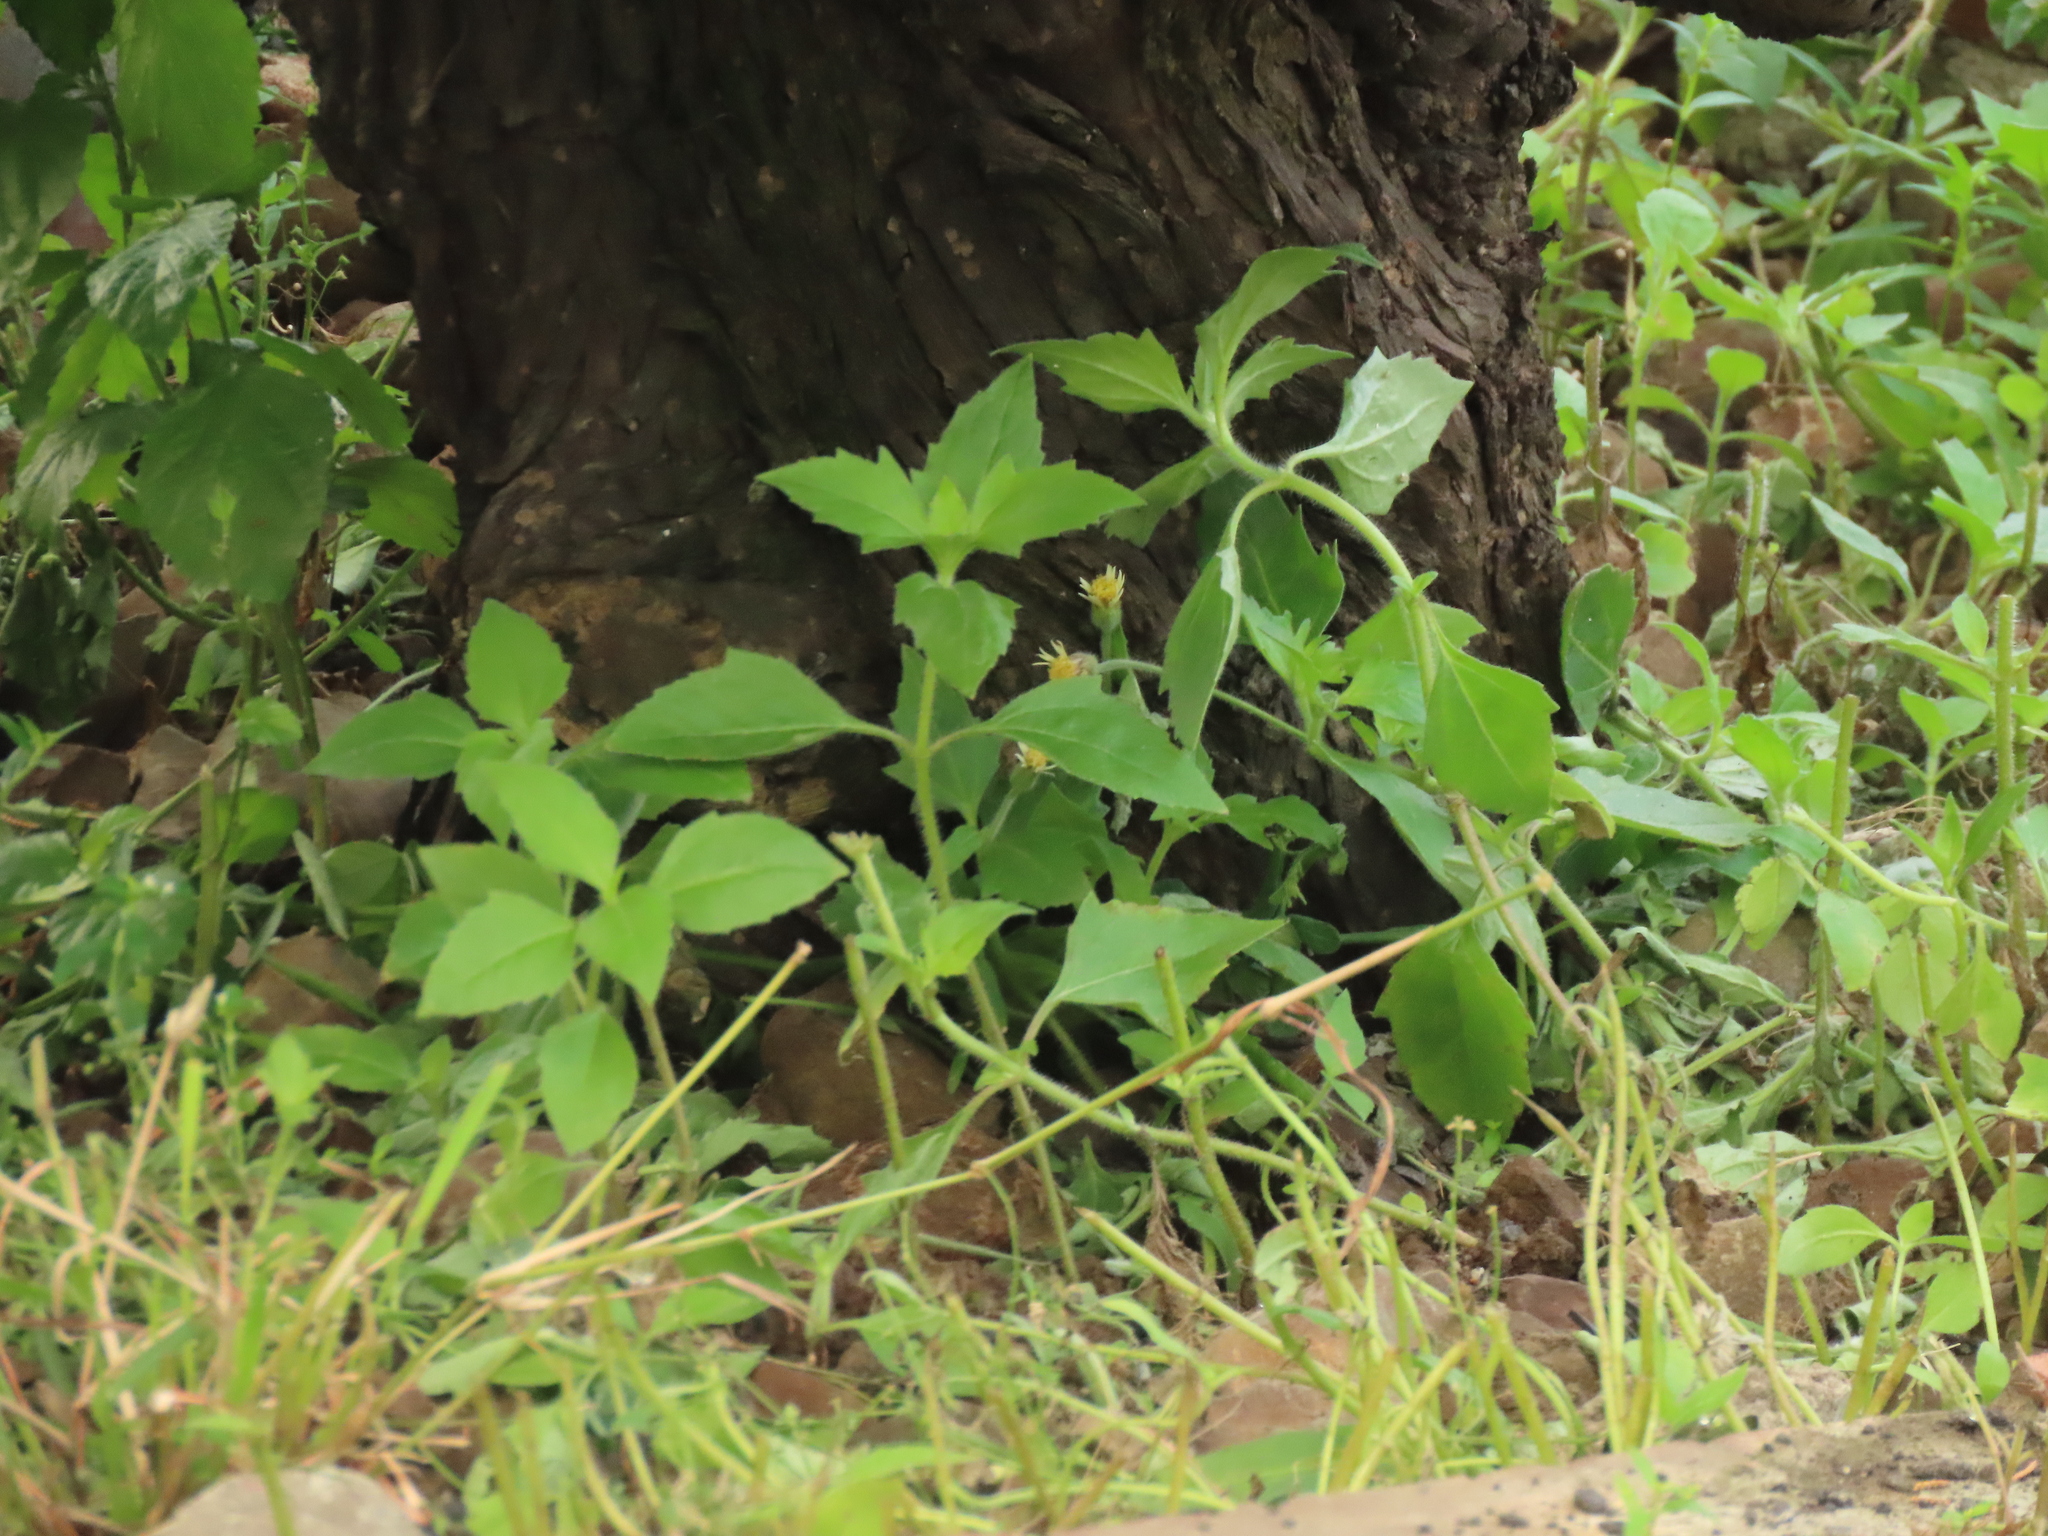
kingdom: Plantae
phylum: Tracheophyta
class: Magnoliopsida
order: Asterales
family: Asteraceae
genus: Tridax
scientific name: Tridax procumbens
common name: Coatbuttons
